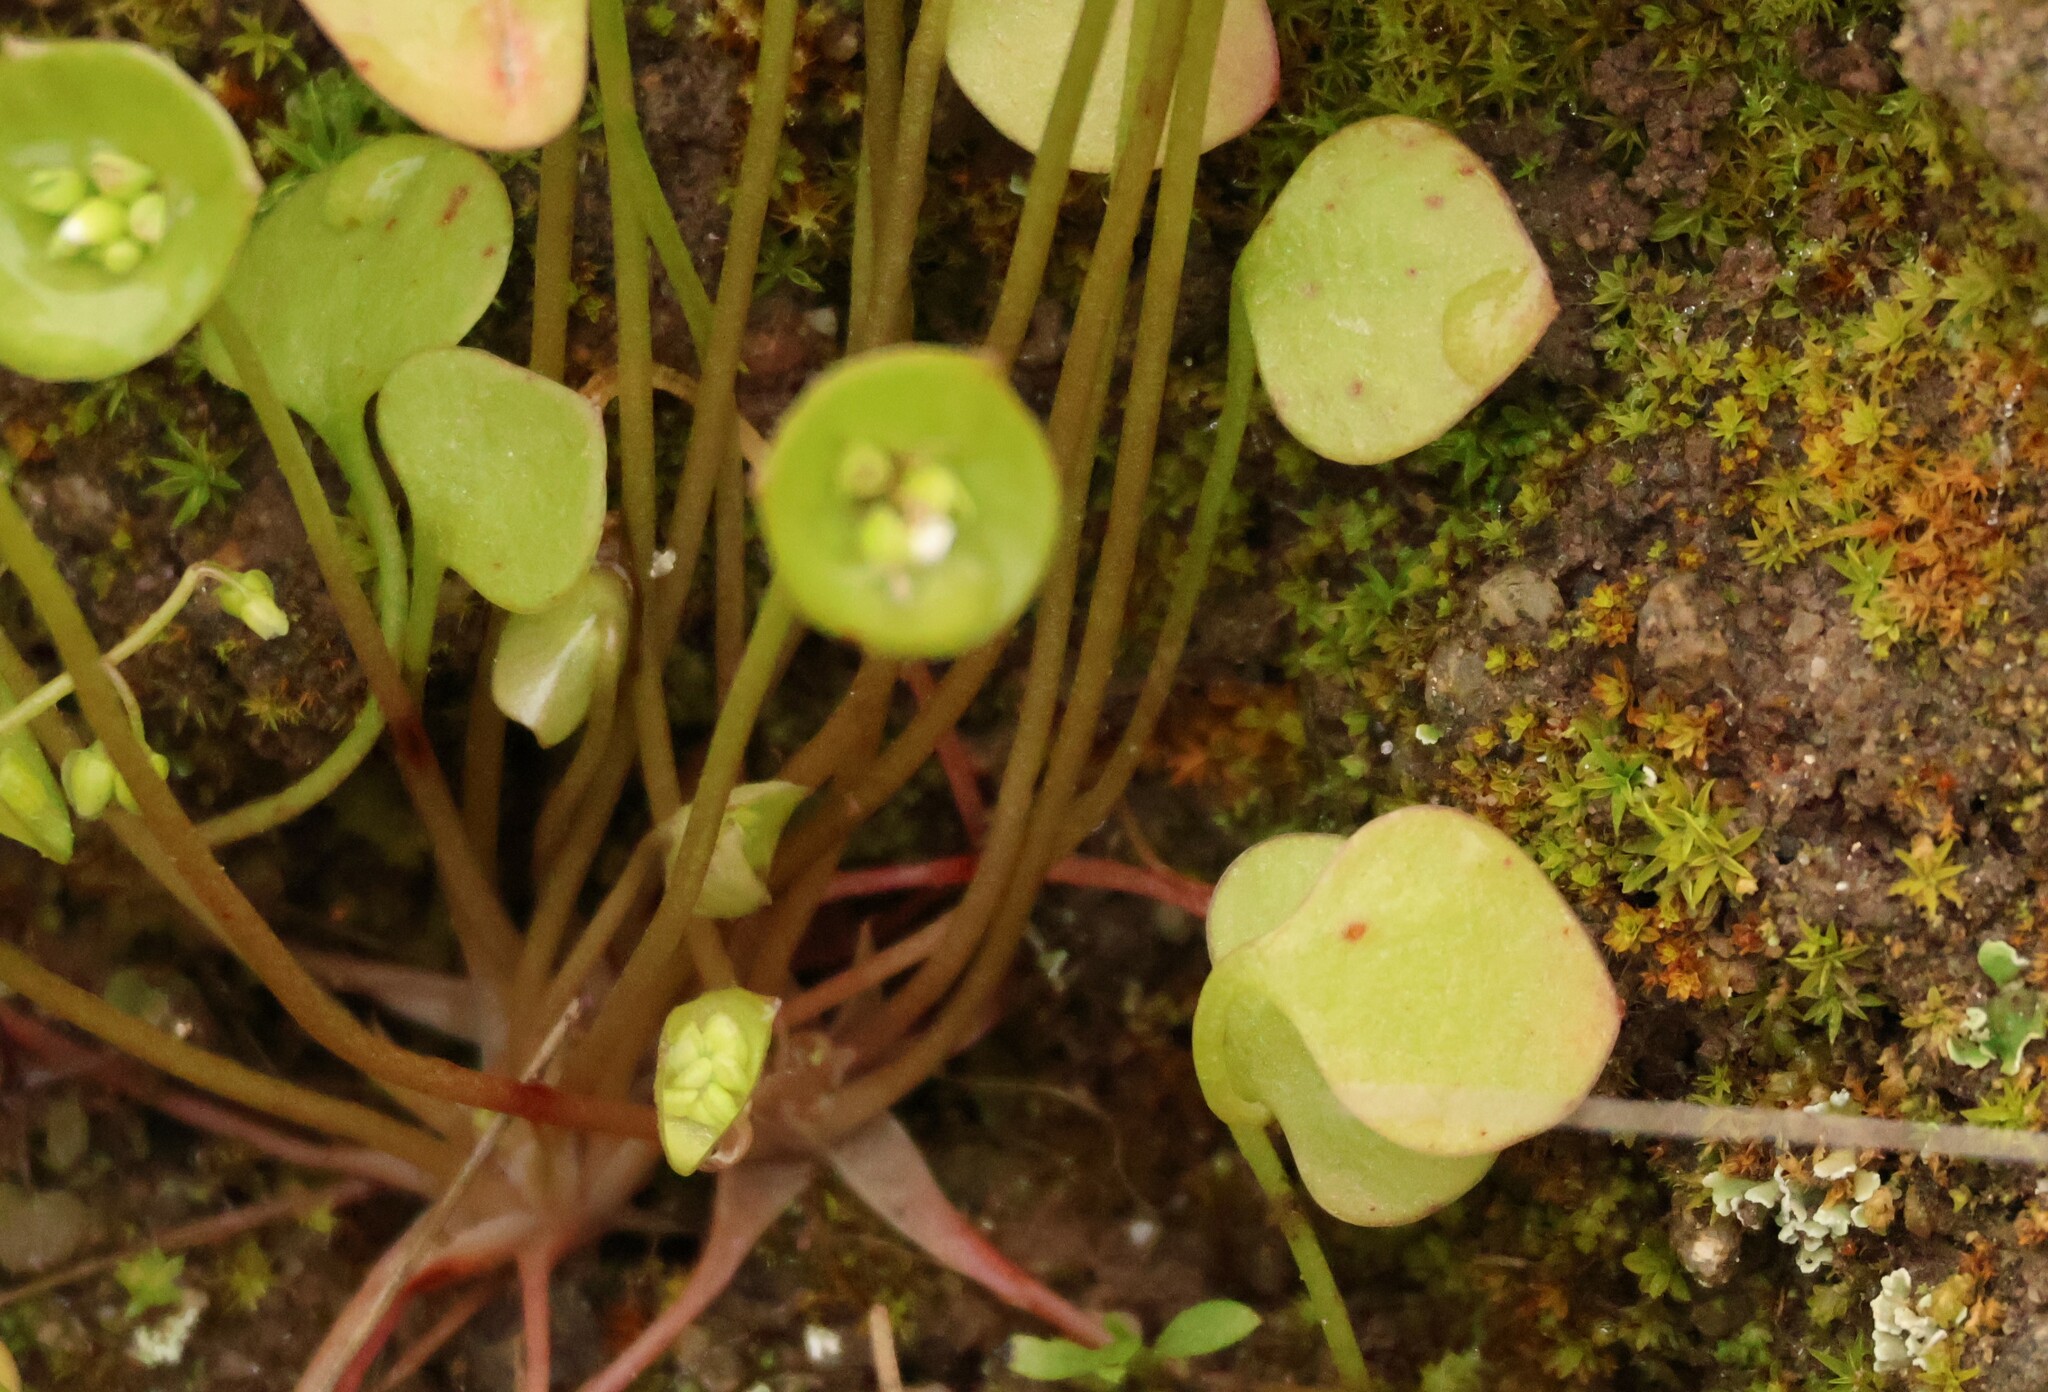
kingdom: Plantae
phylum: Tracheophyta
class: Magnoliopsida
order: Caryophyllales
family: Montiaceae
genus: Claytonia
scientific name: Claytonia perfoliata
